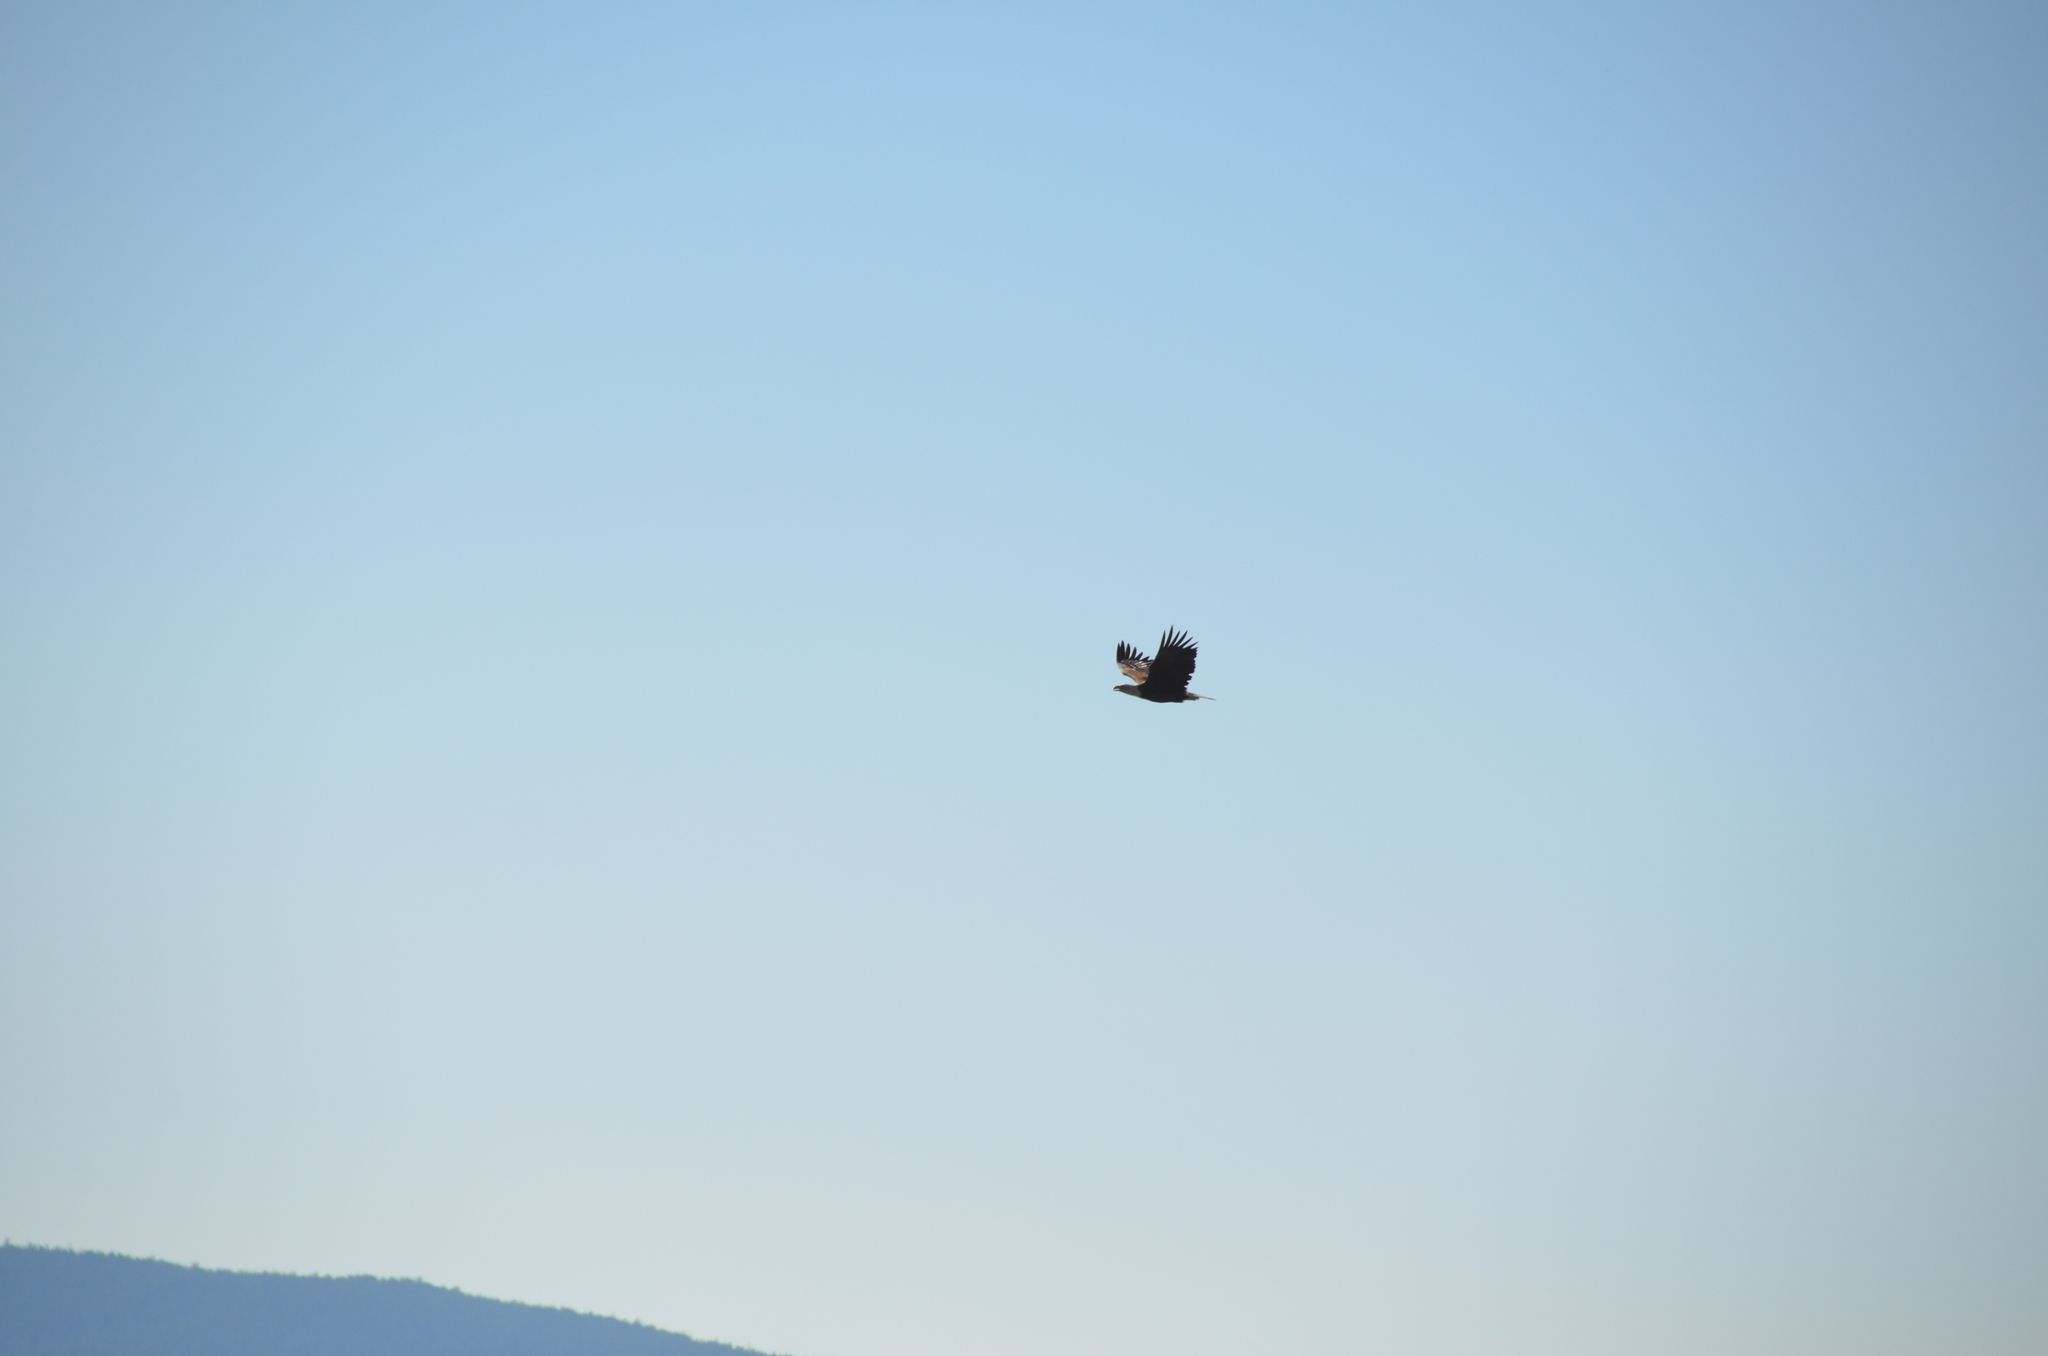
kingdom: Animalia
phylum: Chordata
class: Aves
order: Accipitriformes
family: Accipitridae
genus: Haliaeetus
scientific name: Haliaeetus leucocephalus
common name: Bald eagle
